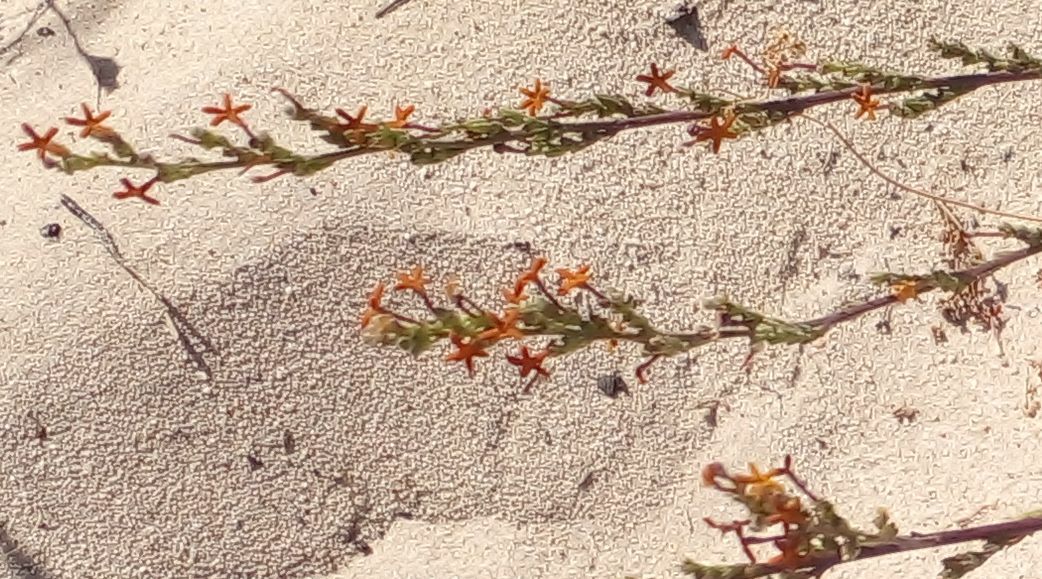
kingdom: Plantae
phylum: Tracheophyta
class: Magnoliopsida
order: Lamiales
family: Scrophulariaceae
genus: Manulea
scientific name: Manulea rubra
